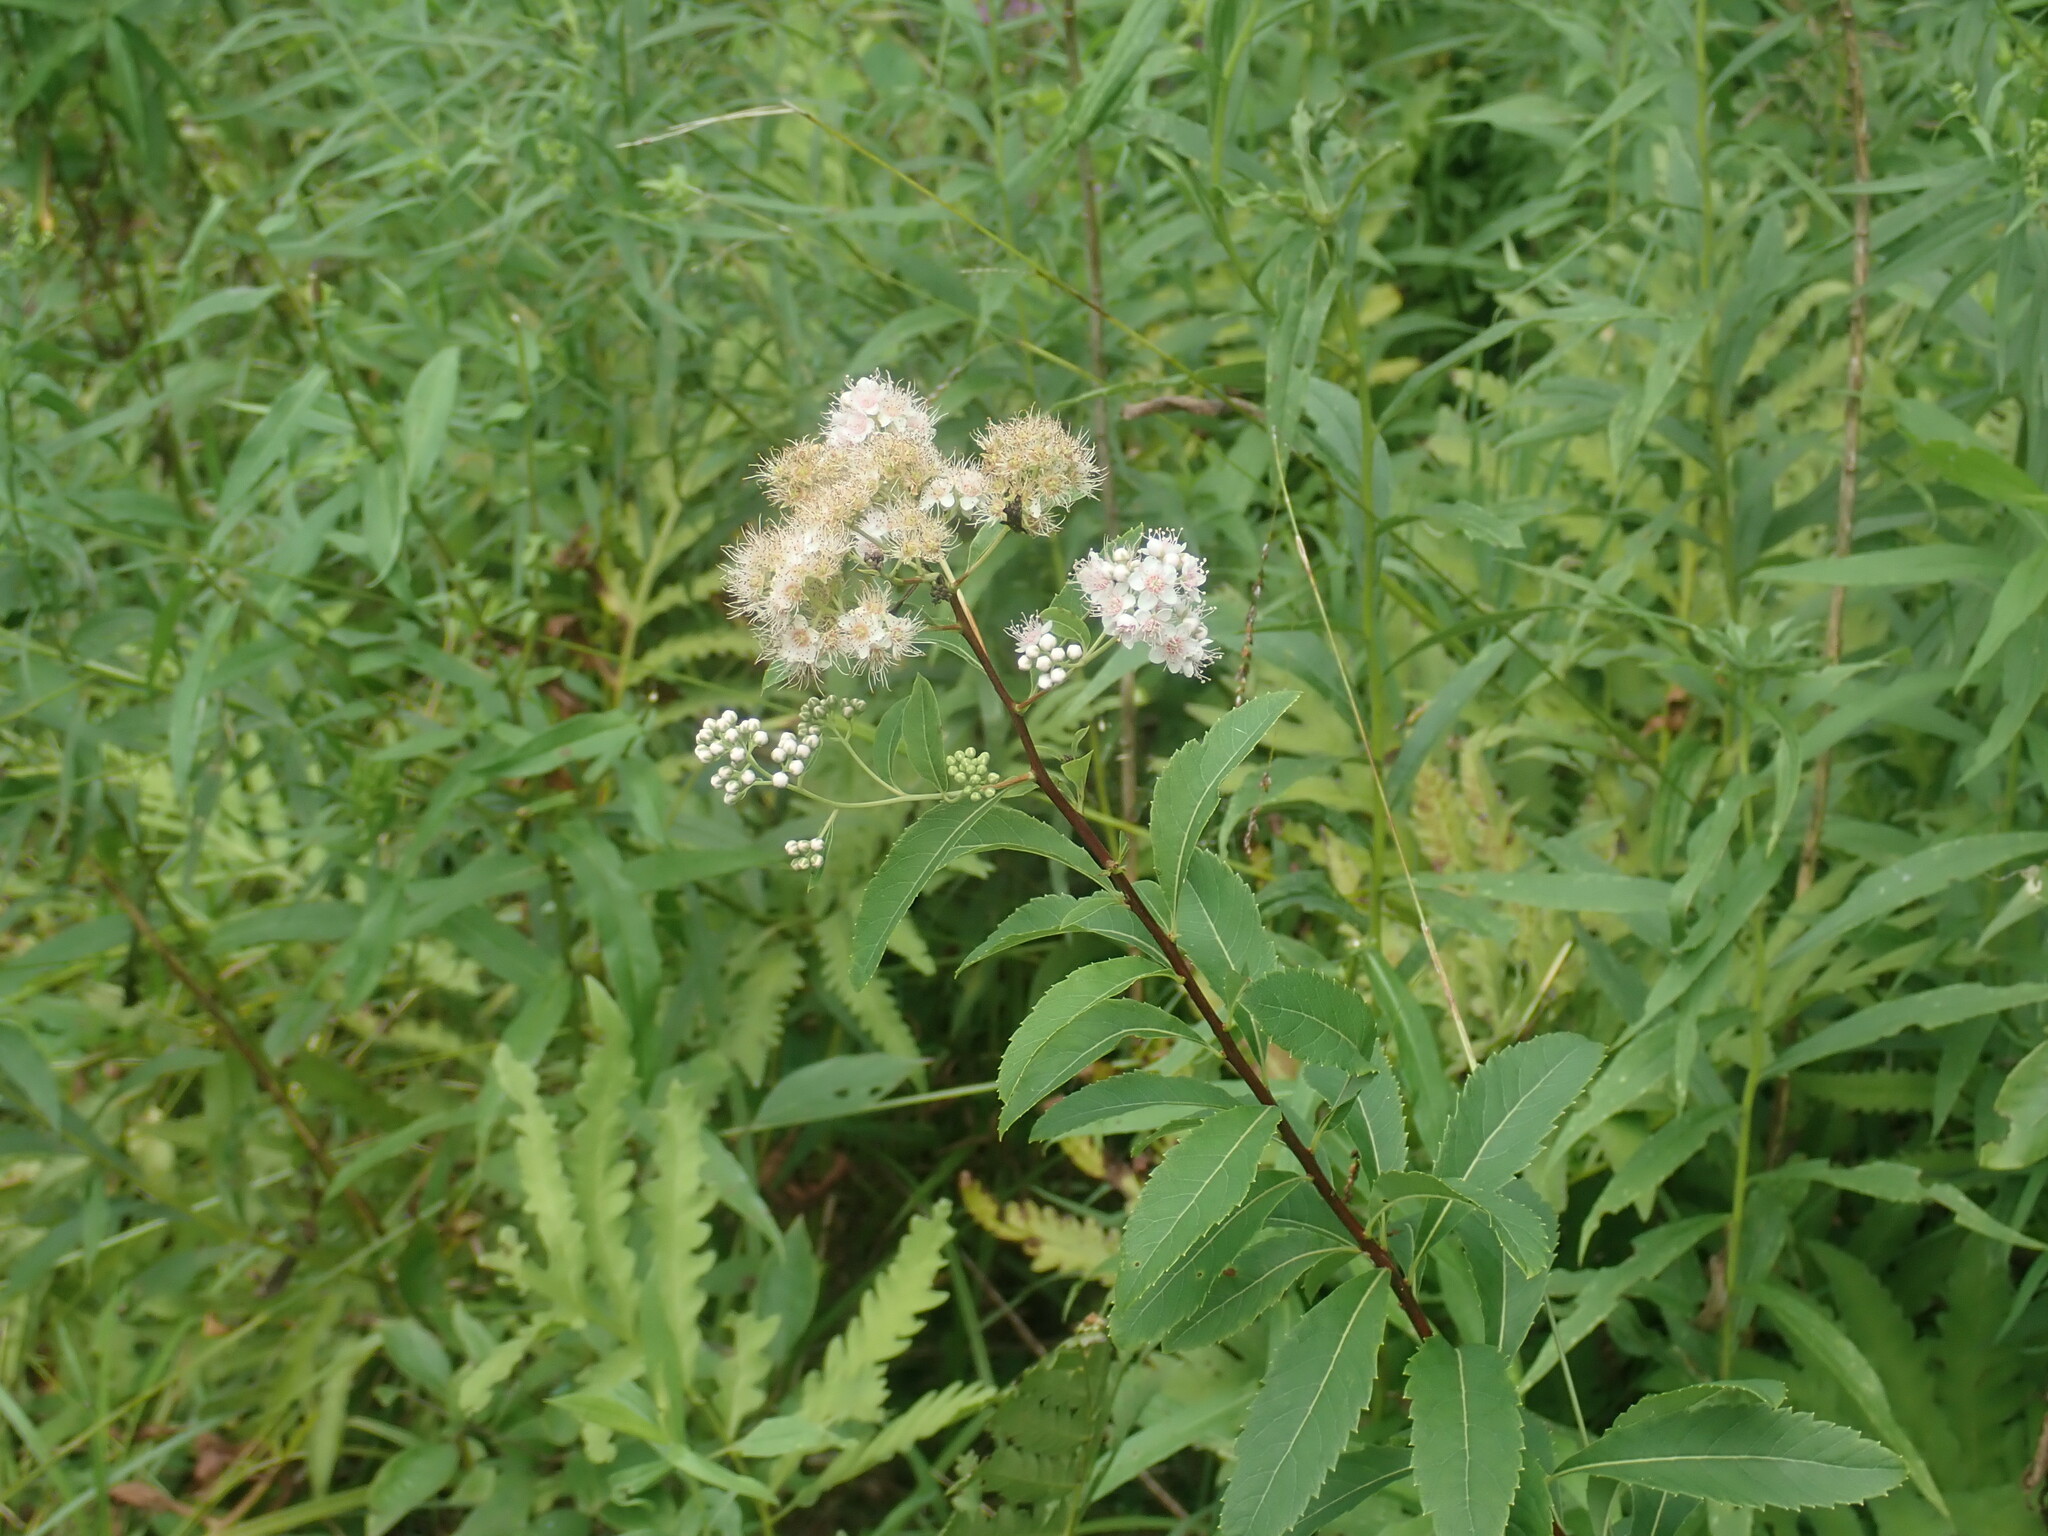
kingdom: Plantae
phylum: Tracheophyta
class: Magnoliopsida
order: Rosales
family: Rosaceae
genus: Spiraea
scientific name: Spiraea alba
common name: Pale bridewort
